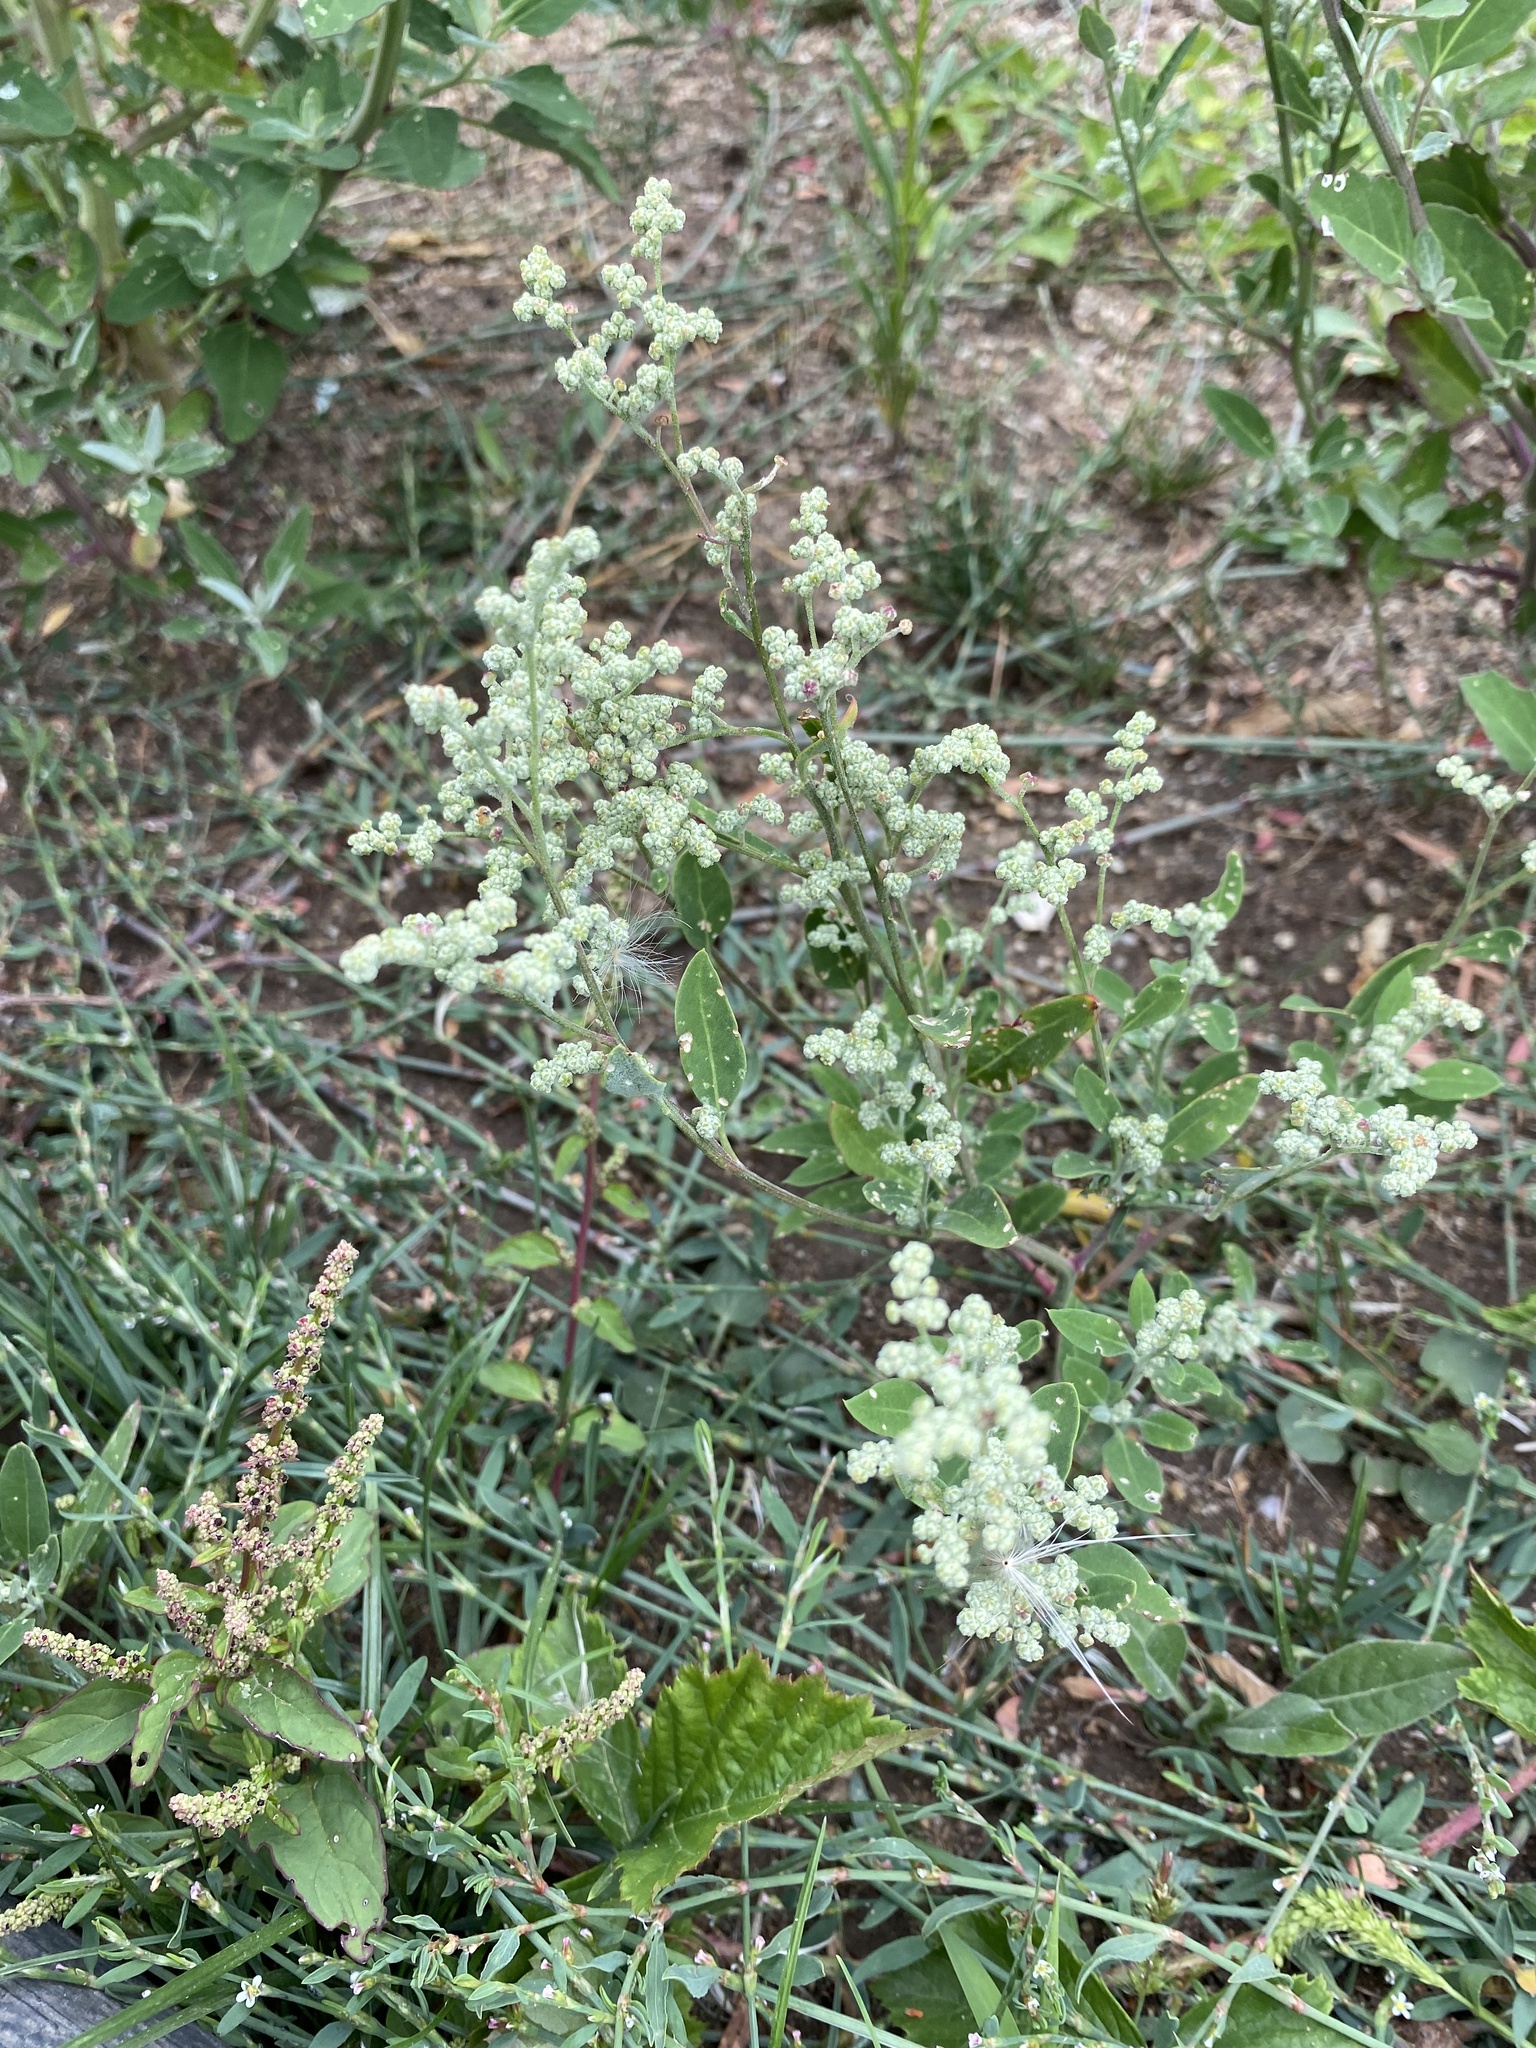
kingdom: Plantae
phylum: Tracheophyta
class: Magnoliopsida
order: Caryophyllales
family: Amaranthaceae
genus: Chenopodium
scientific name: Chenopodium album
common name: Fat-hen
